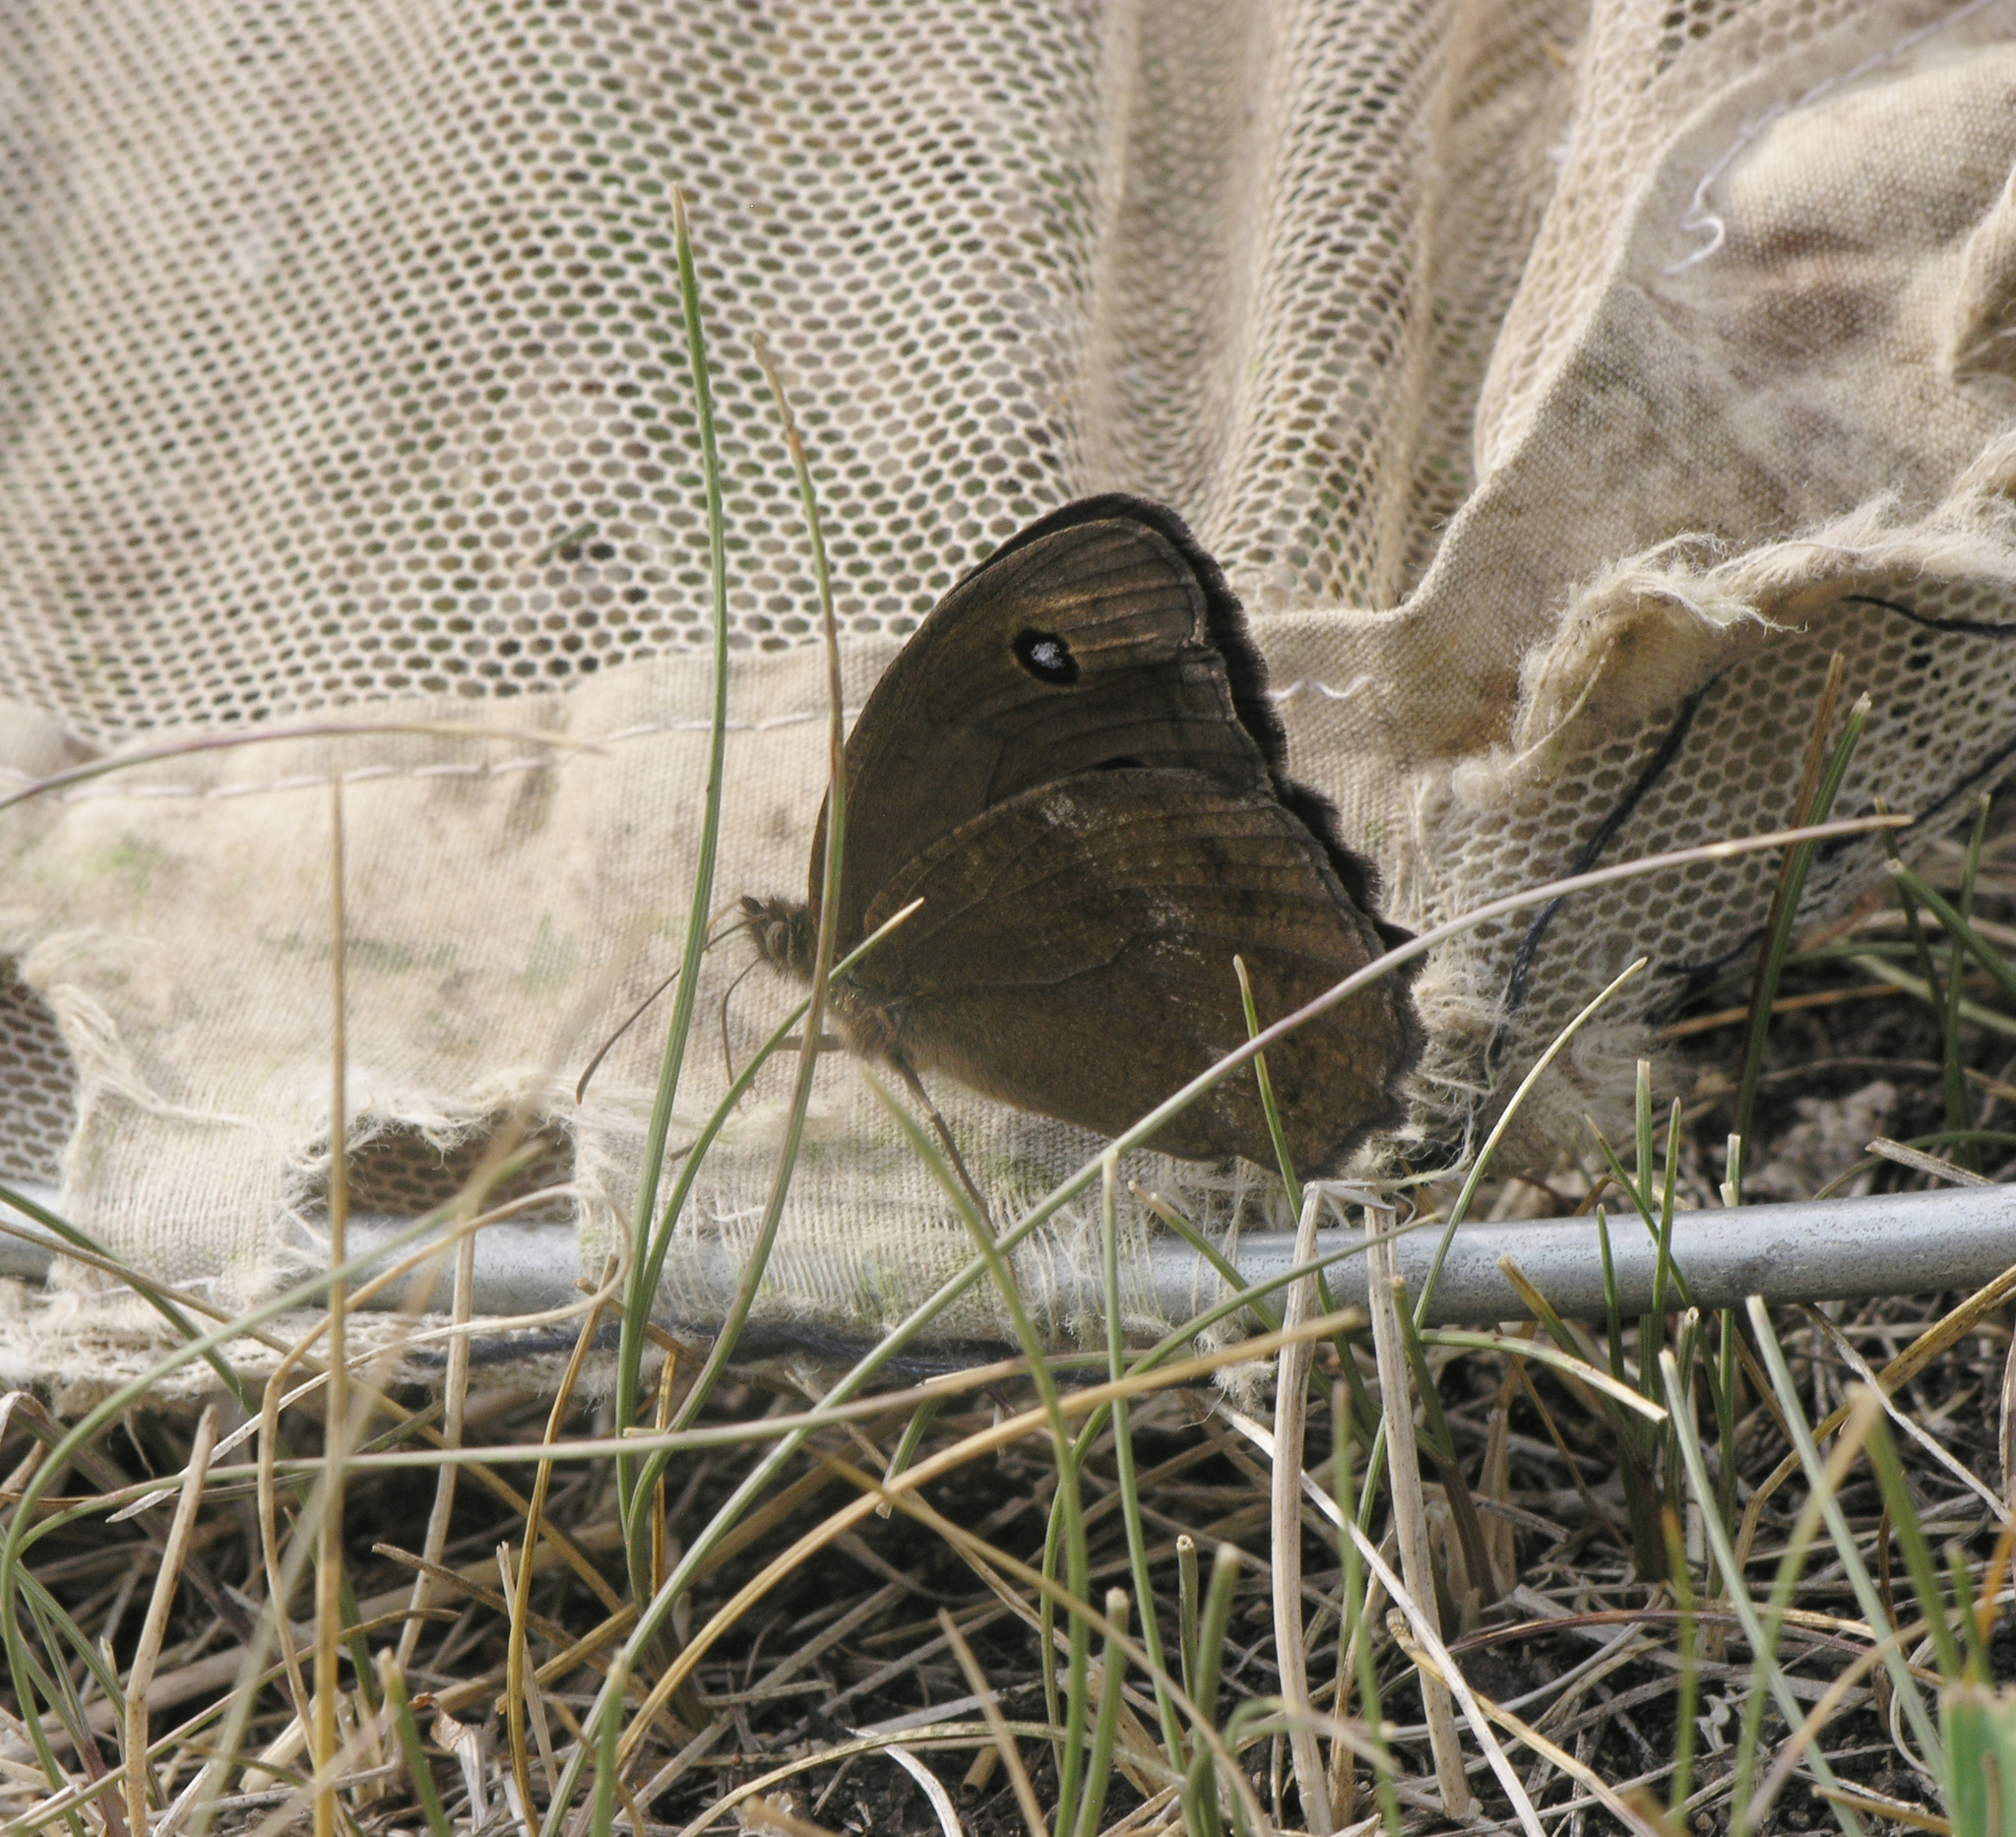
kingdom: Animalia
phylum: Arthropoda
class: Insecta
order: Lepidoptera
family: Nymphalidae
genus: Minois
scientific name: Minois dryas
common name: Dryad
